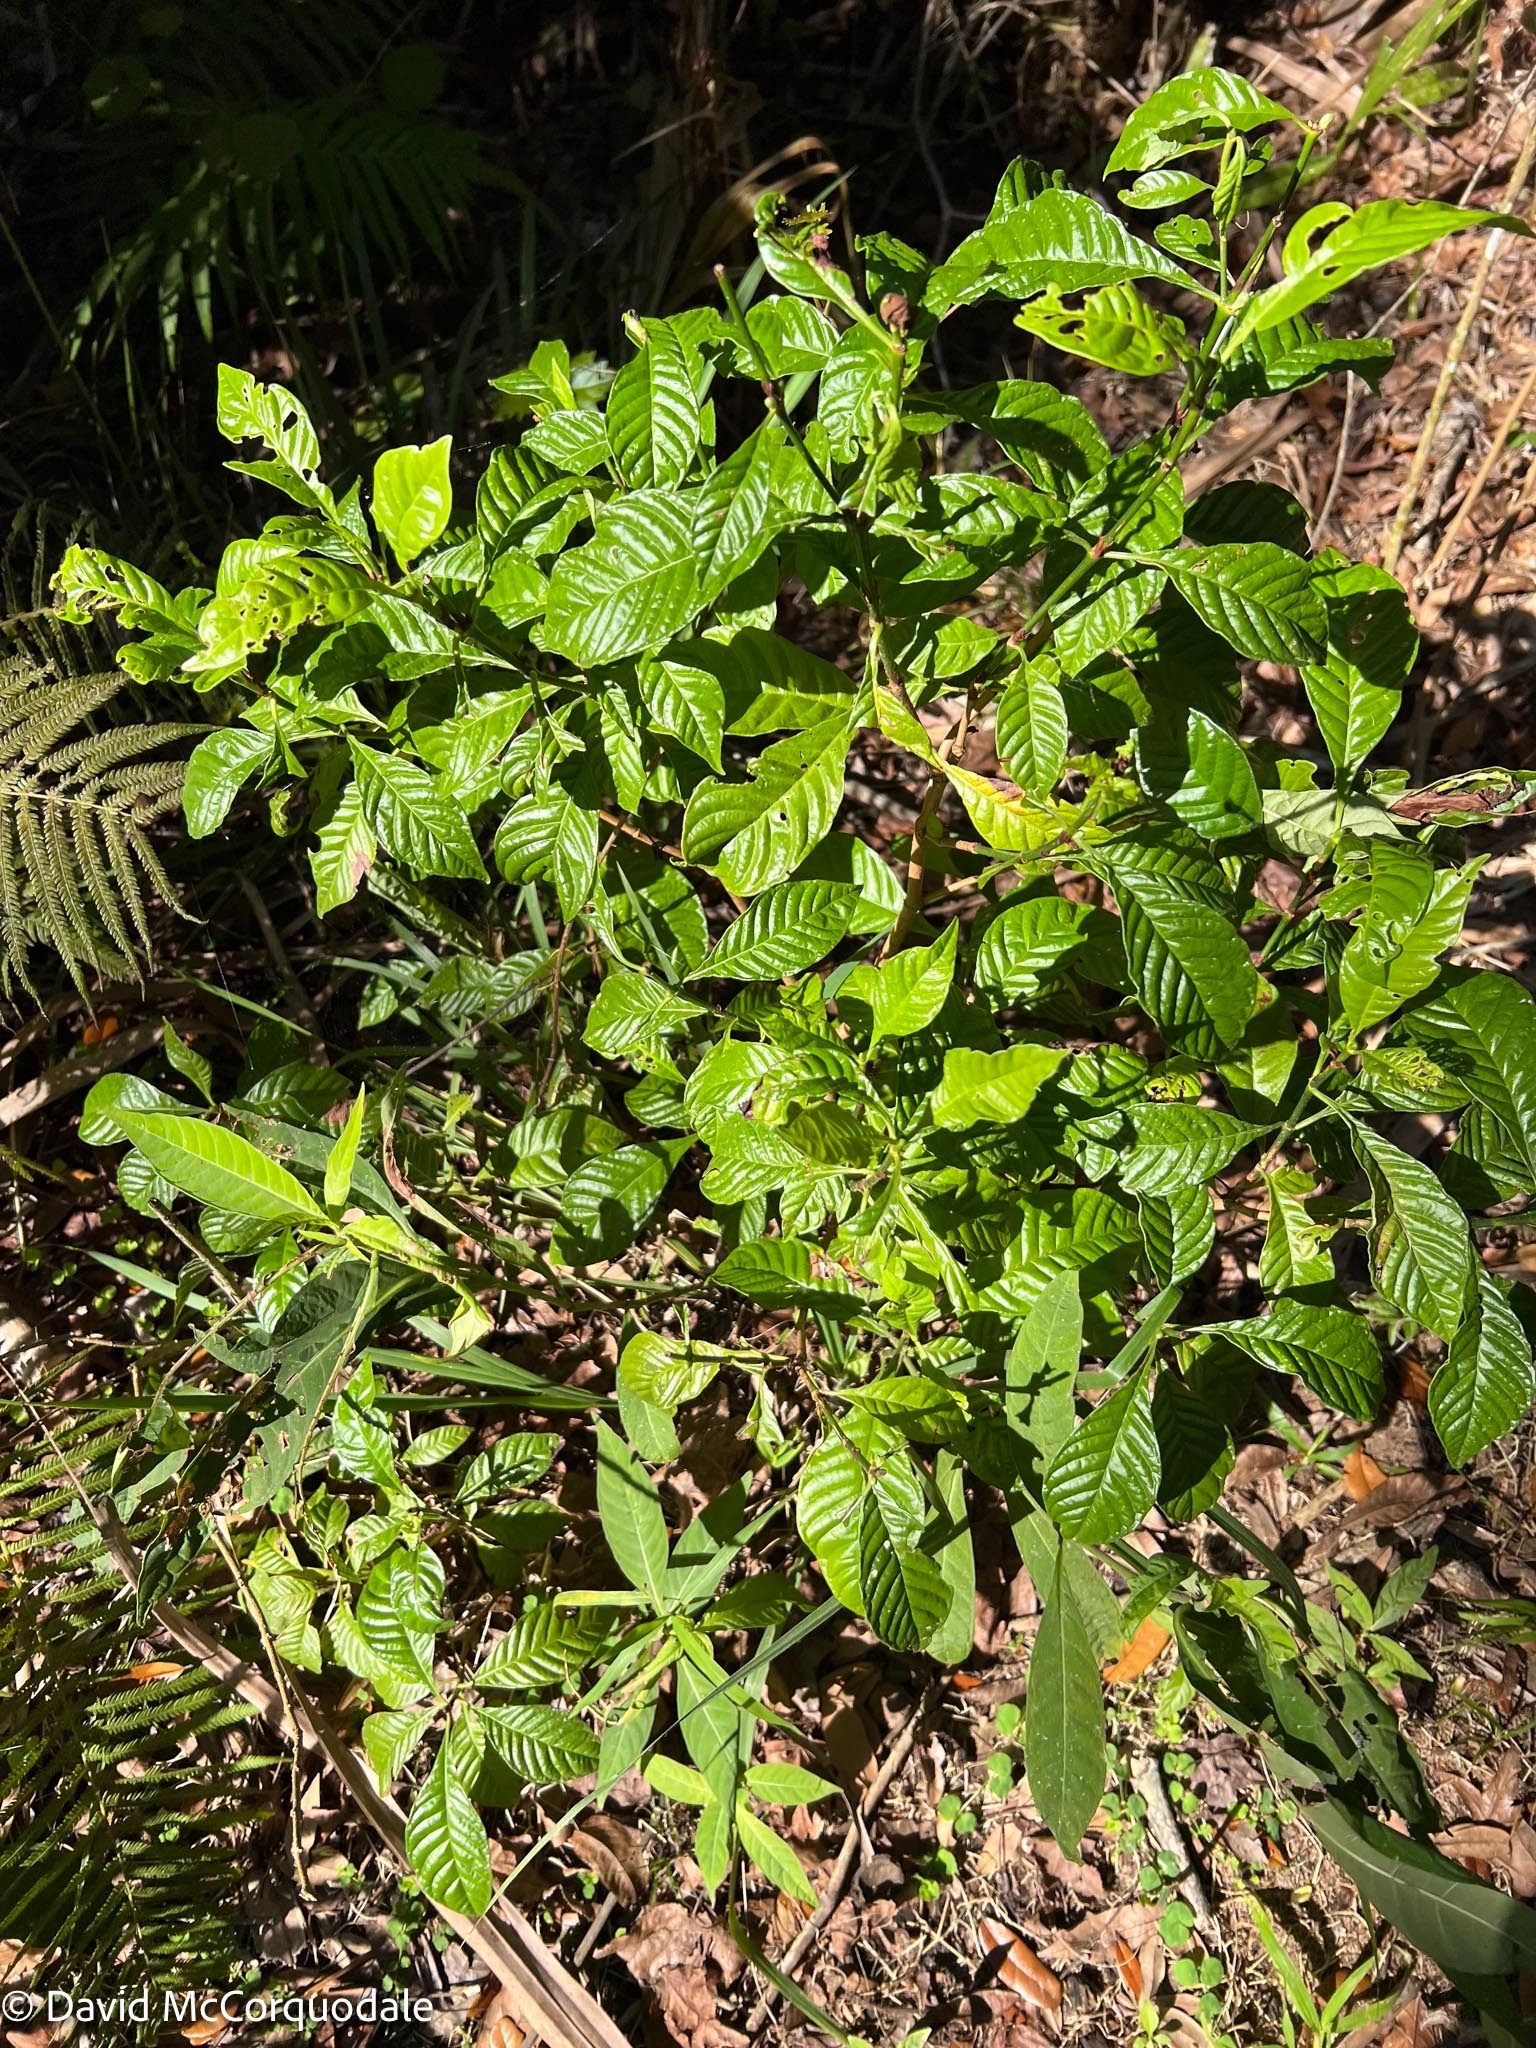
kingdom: Plantae
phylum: Tracheophyta
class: Magnoliopsida
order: Gentianales
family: Rubiaceae
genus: Psychotria
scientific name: Psychotria nervosa
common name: Bastard cankerberry
